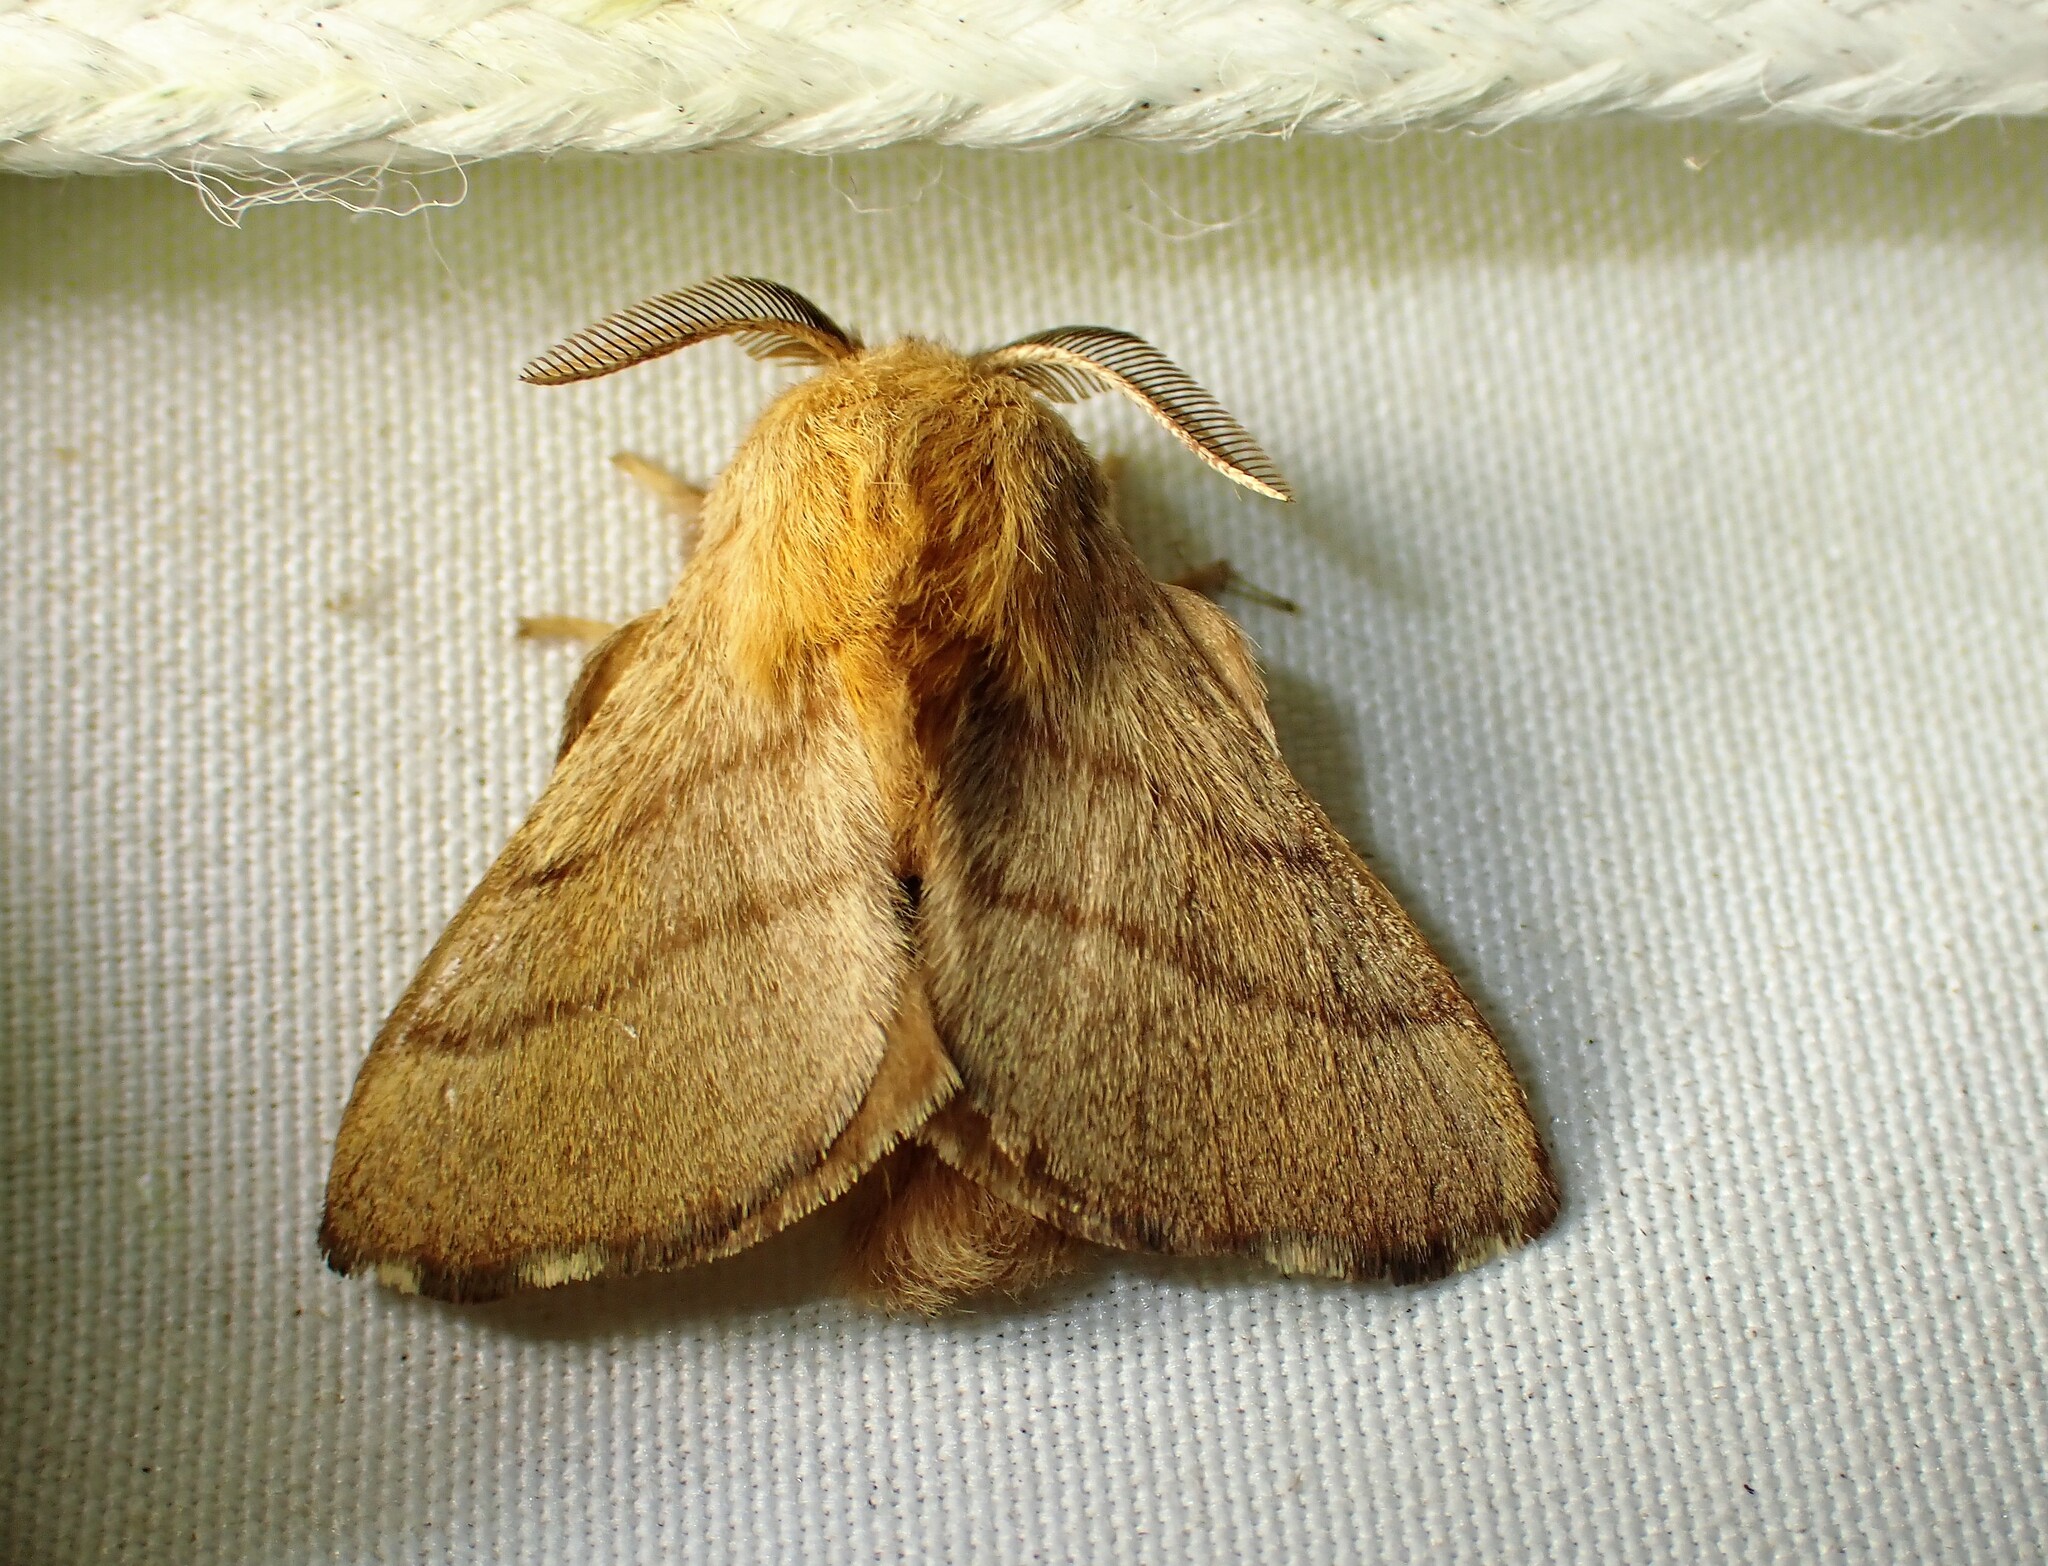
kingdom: Animalia
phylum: Arthropoda
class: Insecta
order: Lepidoptera
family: Lasiocampidae
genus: Malacosoma
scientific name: Malacosoma disstria
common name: Forest tent caterpillar
